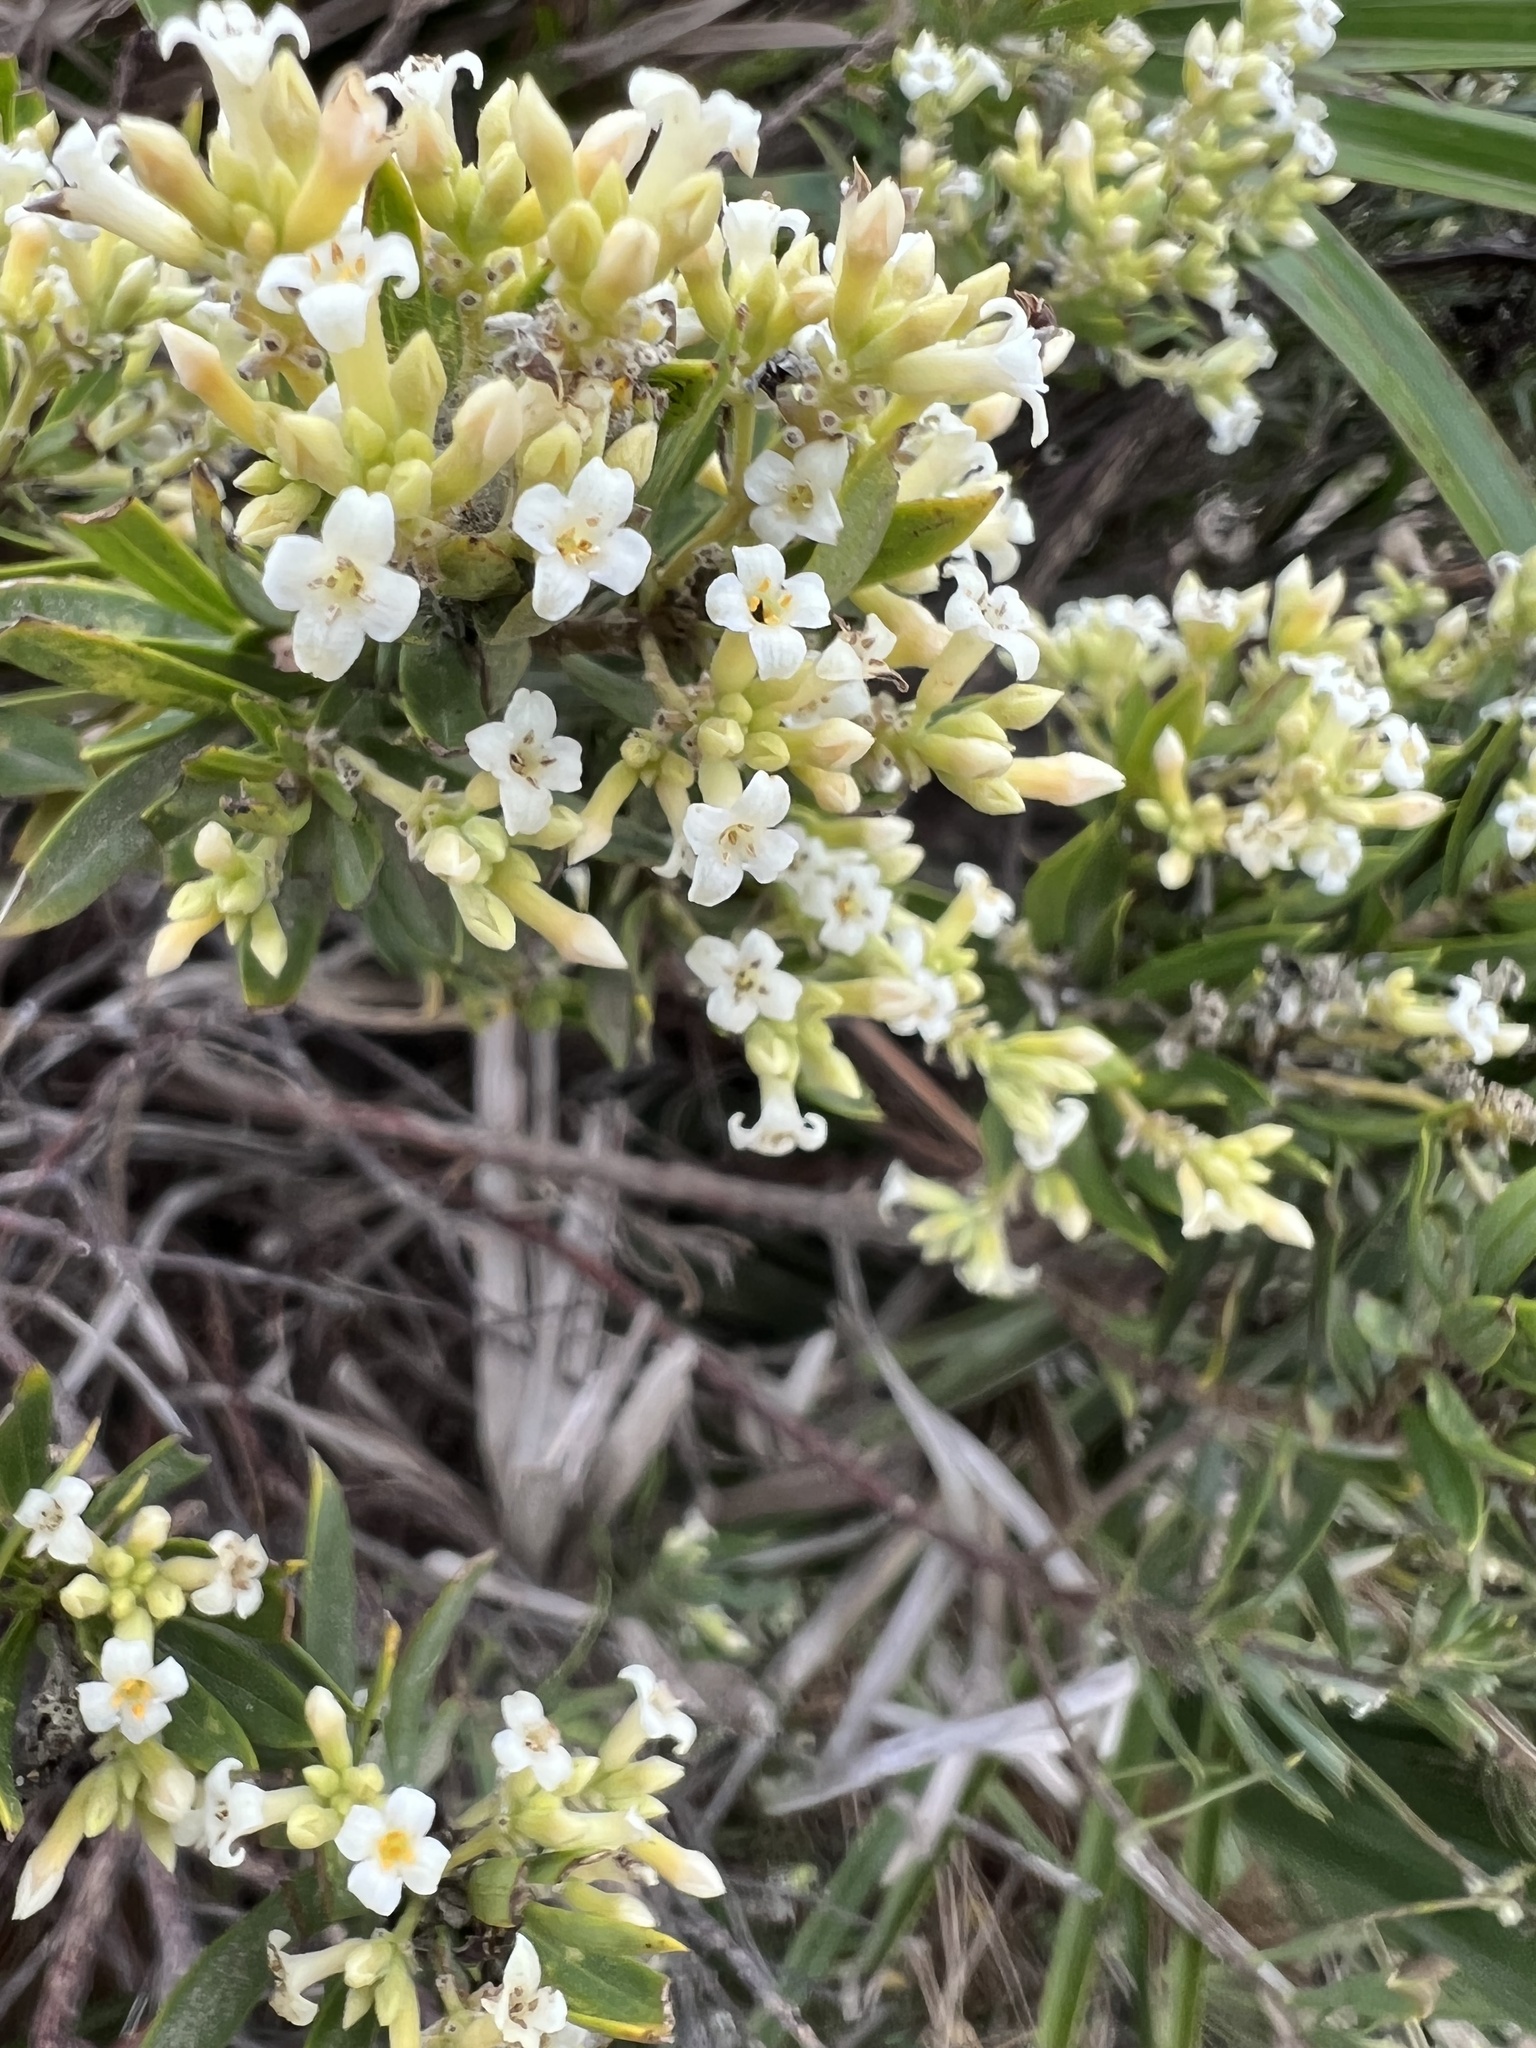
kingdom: Plantae
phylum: Tracheophyta
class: Magnoliopsida
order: Malvales
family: Thymelaeaceae
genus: Daphne
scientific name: Daphne gnidium
